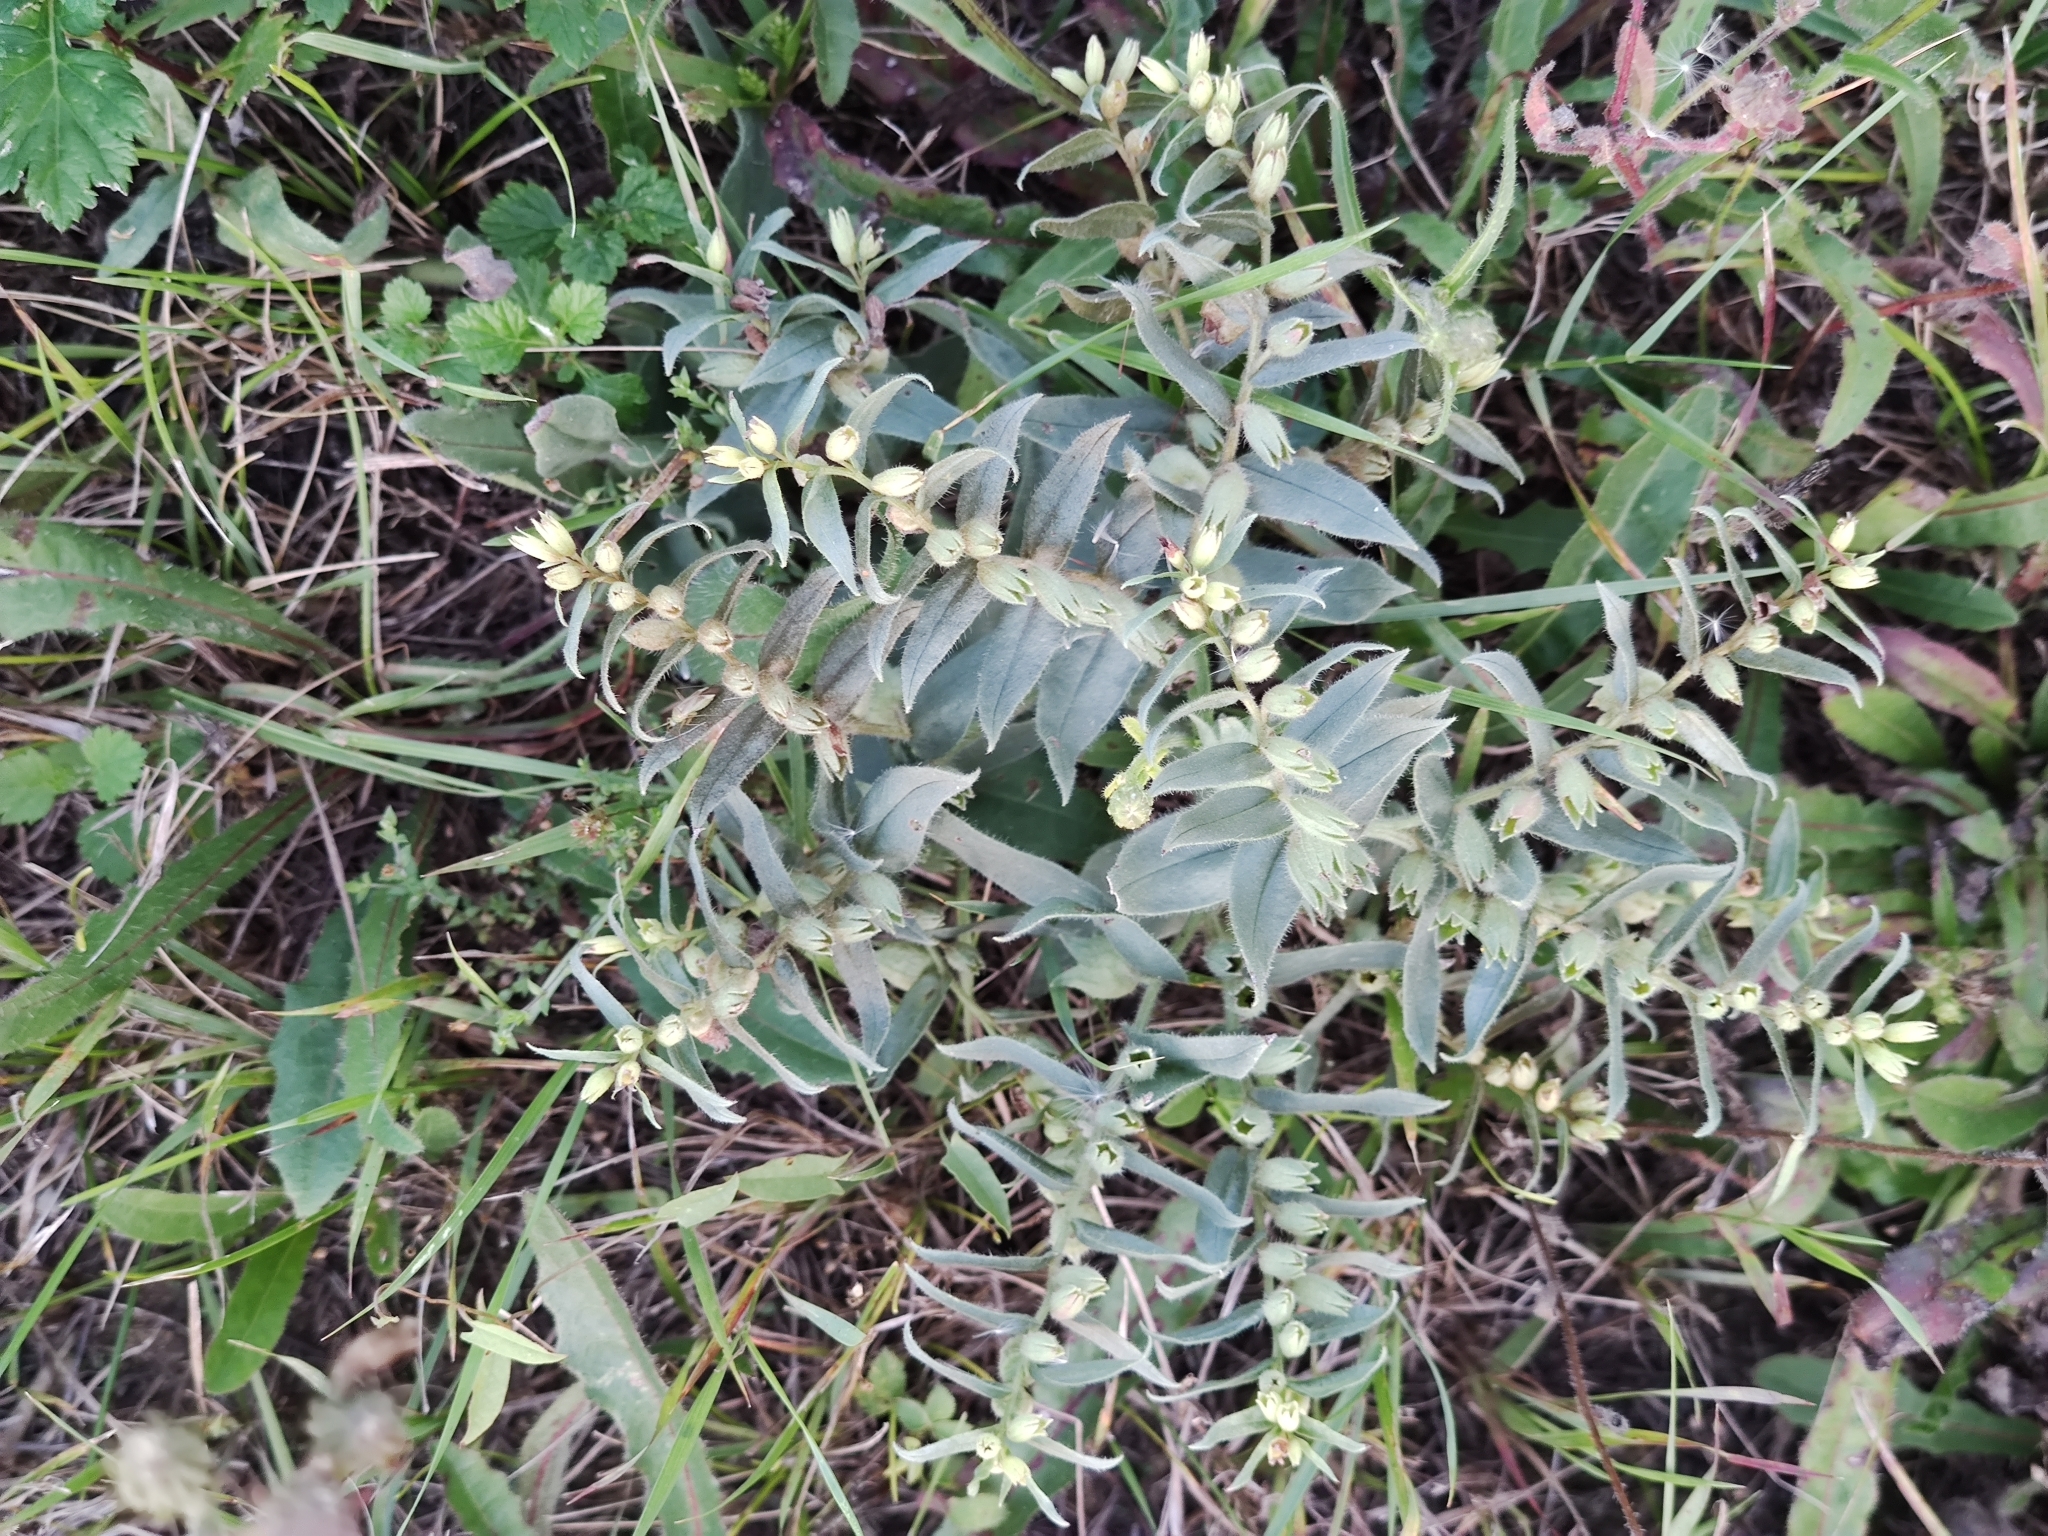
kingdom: Plantae
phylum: Tracheophyta
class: Magnoliopsida
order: Boraginales
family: Boraginaceae
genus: Nonea
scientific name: Nonea pulla
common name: Brown nonea
